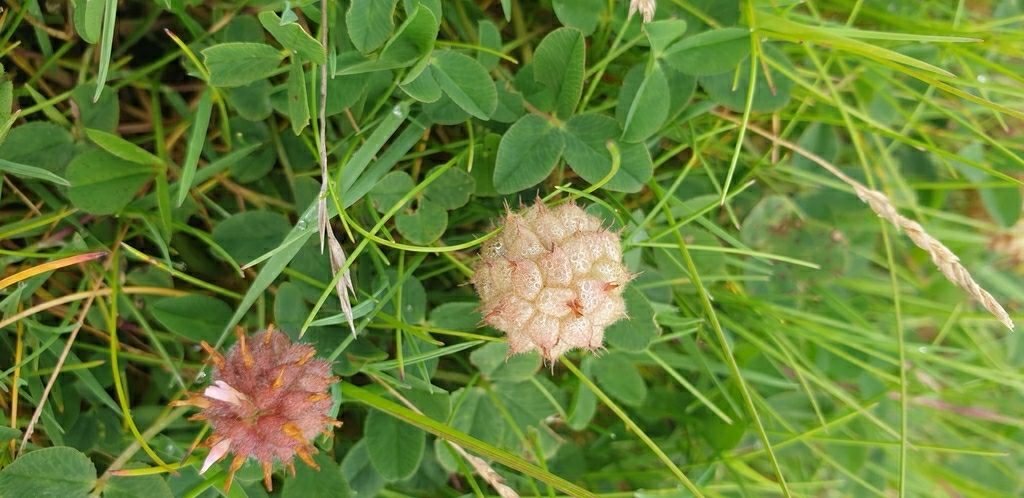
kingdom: Plantae
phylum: Tracheophyta
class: Magnoliopsida
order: Fabales
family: Fabaceae
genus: Trifolium
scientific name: Trifolium fragiferum
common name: Strawberry clover
